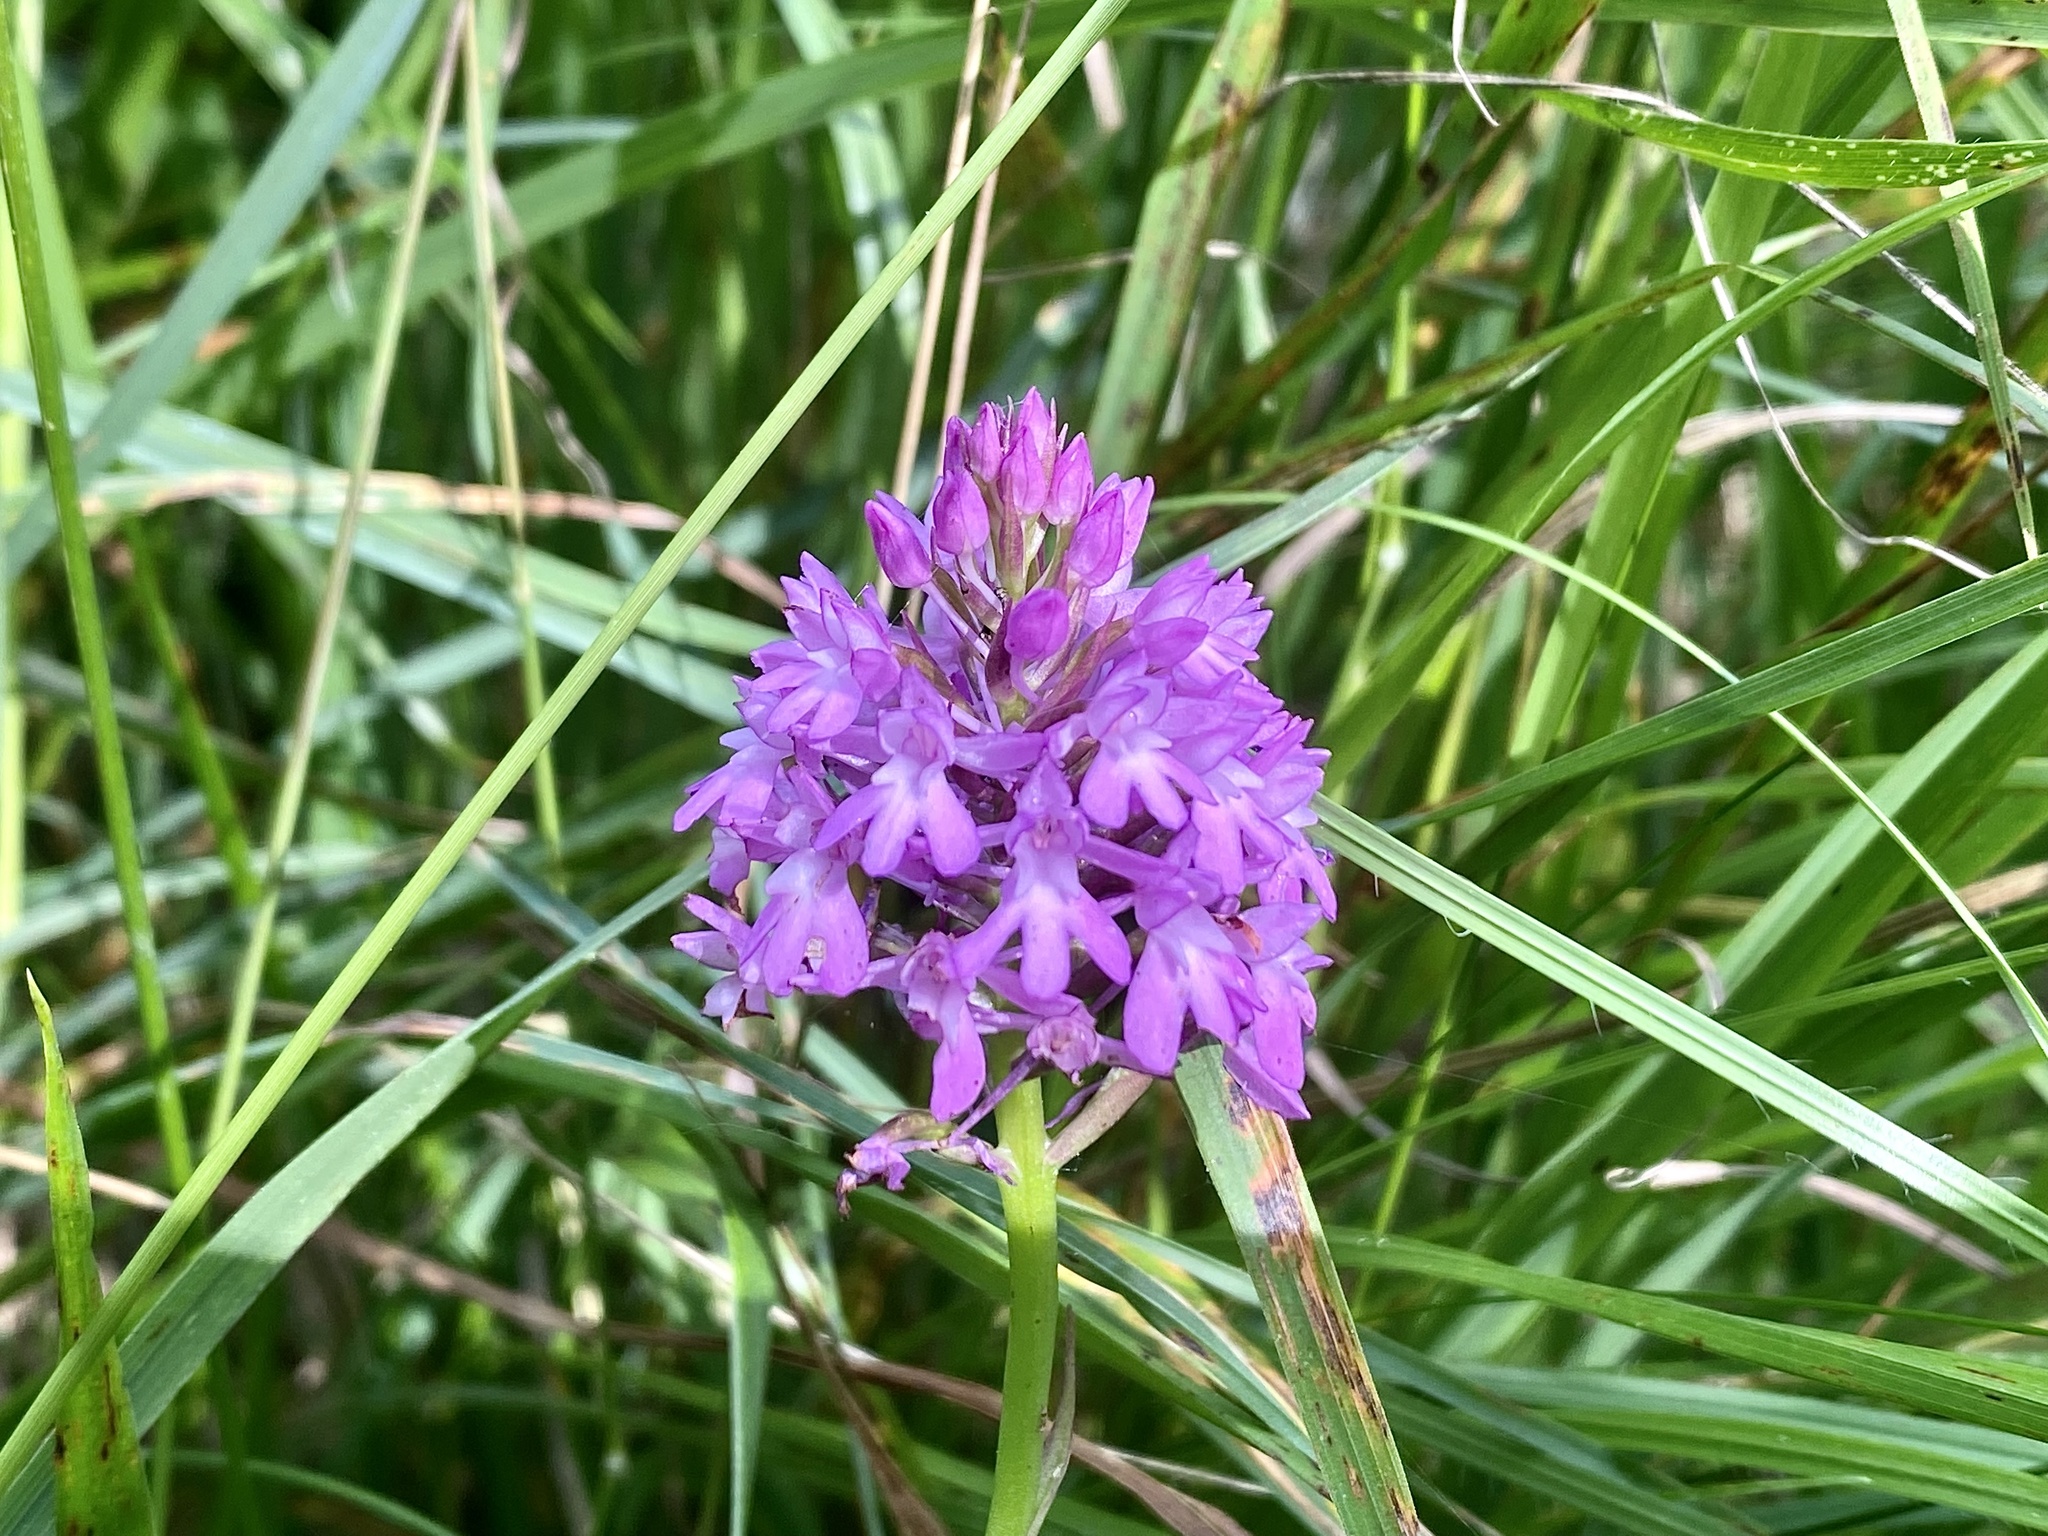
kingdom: Plantae
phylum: Tracheophyta
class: Liliopsida
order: Asparagales
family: Orchidaceae
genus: Anacamptis
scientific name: Anacamptis pyramidalis
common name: Pyramidal orchid
